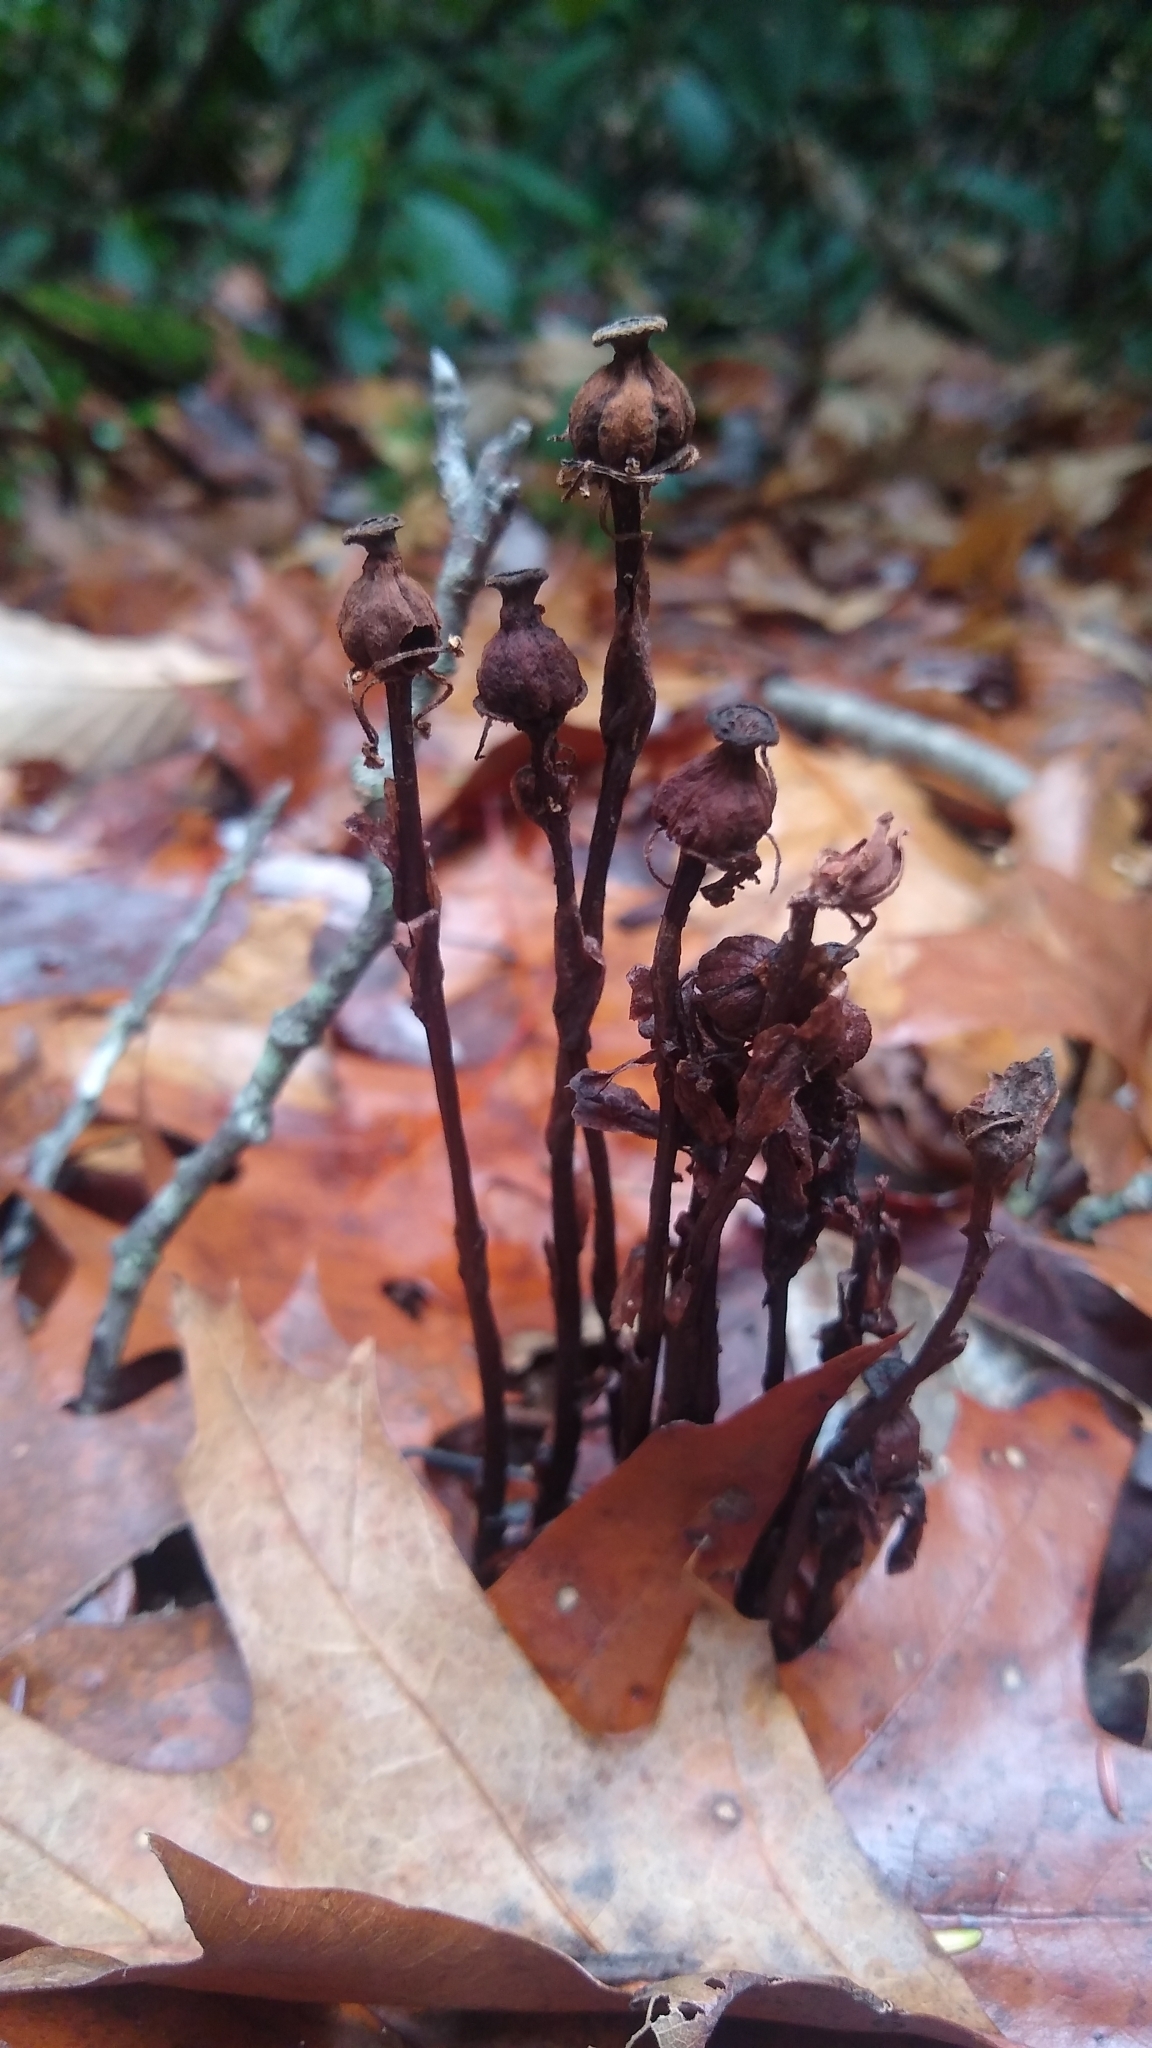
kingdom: Plantae
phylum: Tracheophyta
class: Magnoliopsida
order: Ericales
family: Ericaceae
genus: Monotropa
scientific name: Monotropa uniflora
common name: Convulsion root
